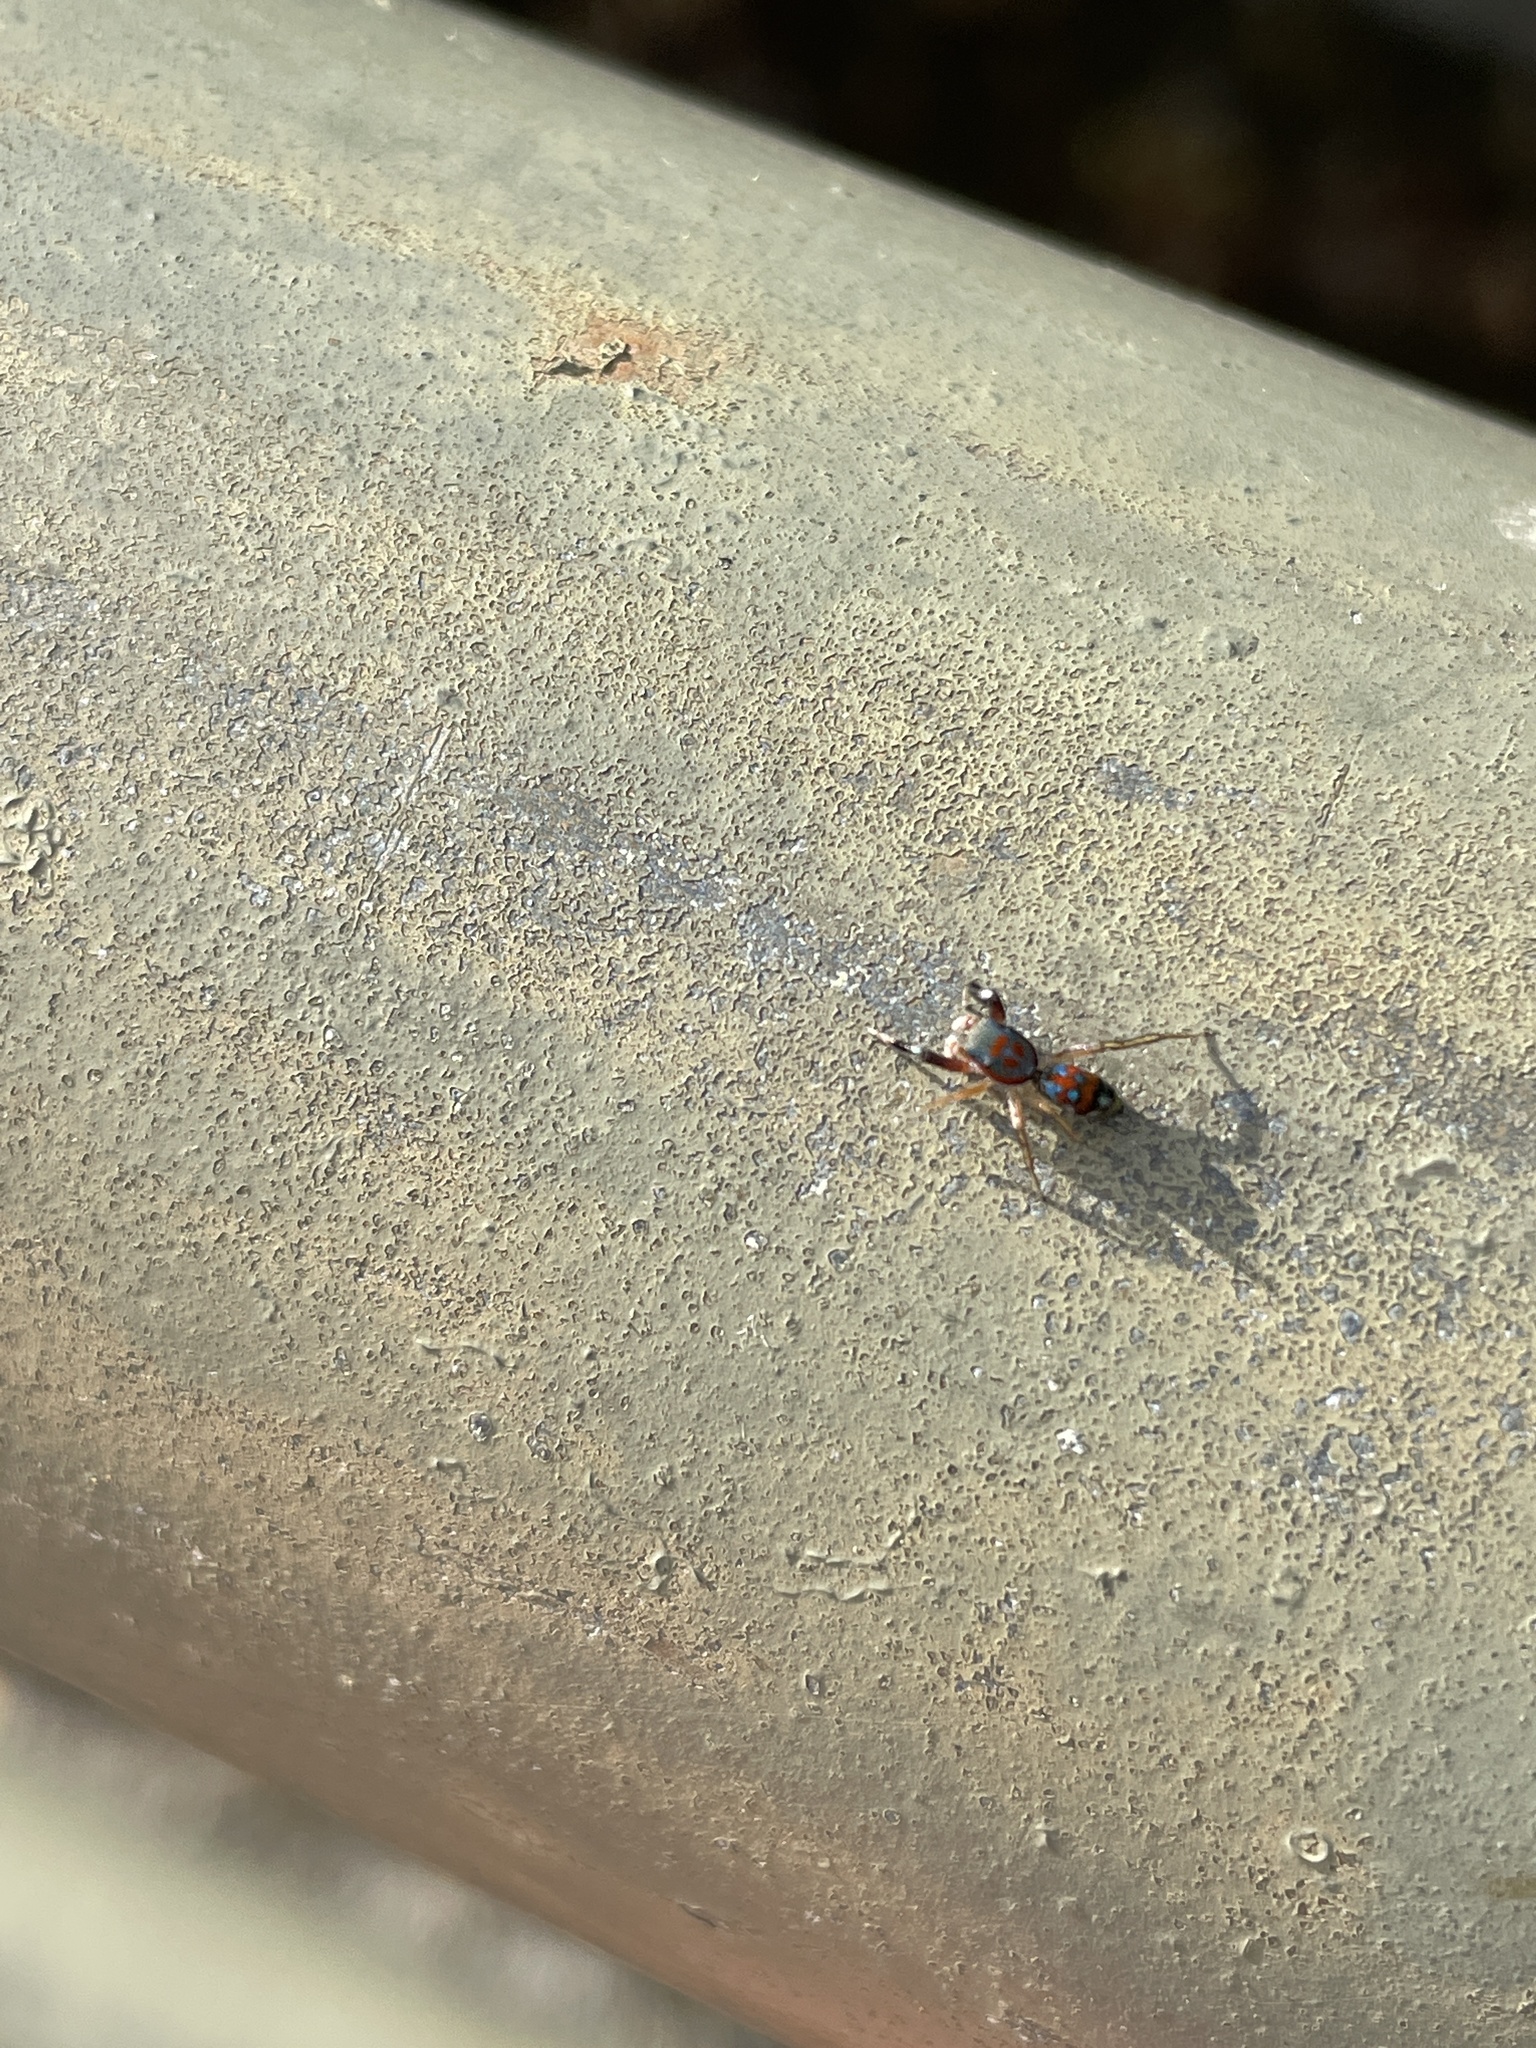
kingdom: Animalia
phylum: Arthropoda
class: Arachnida
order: Araneae
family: Salticidae
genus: Siler
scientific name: Siler collingwoodi
